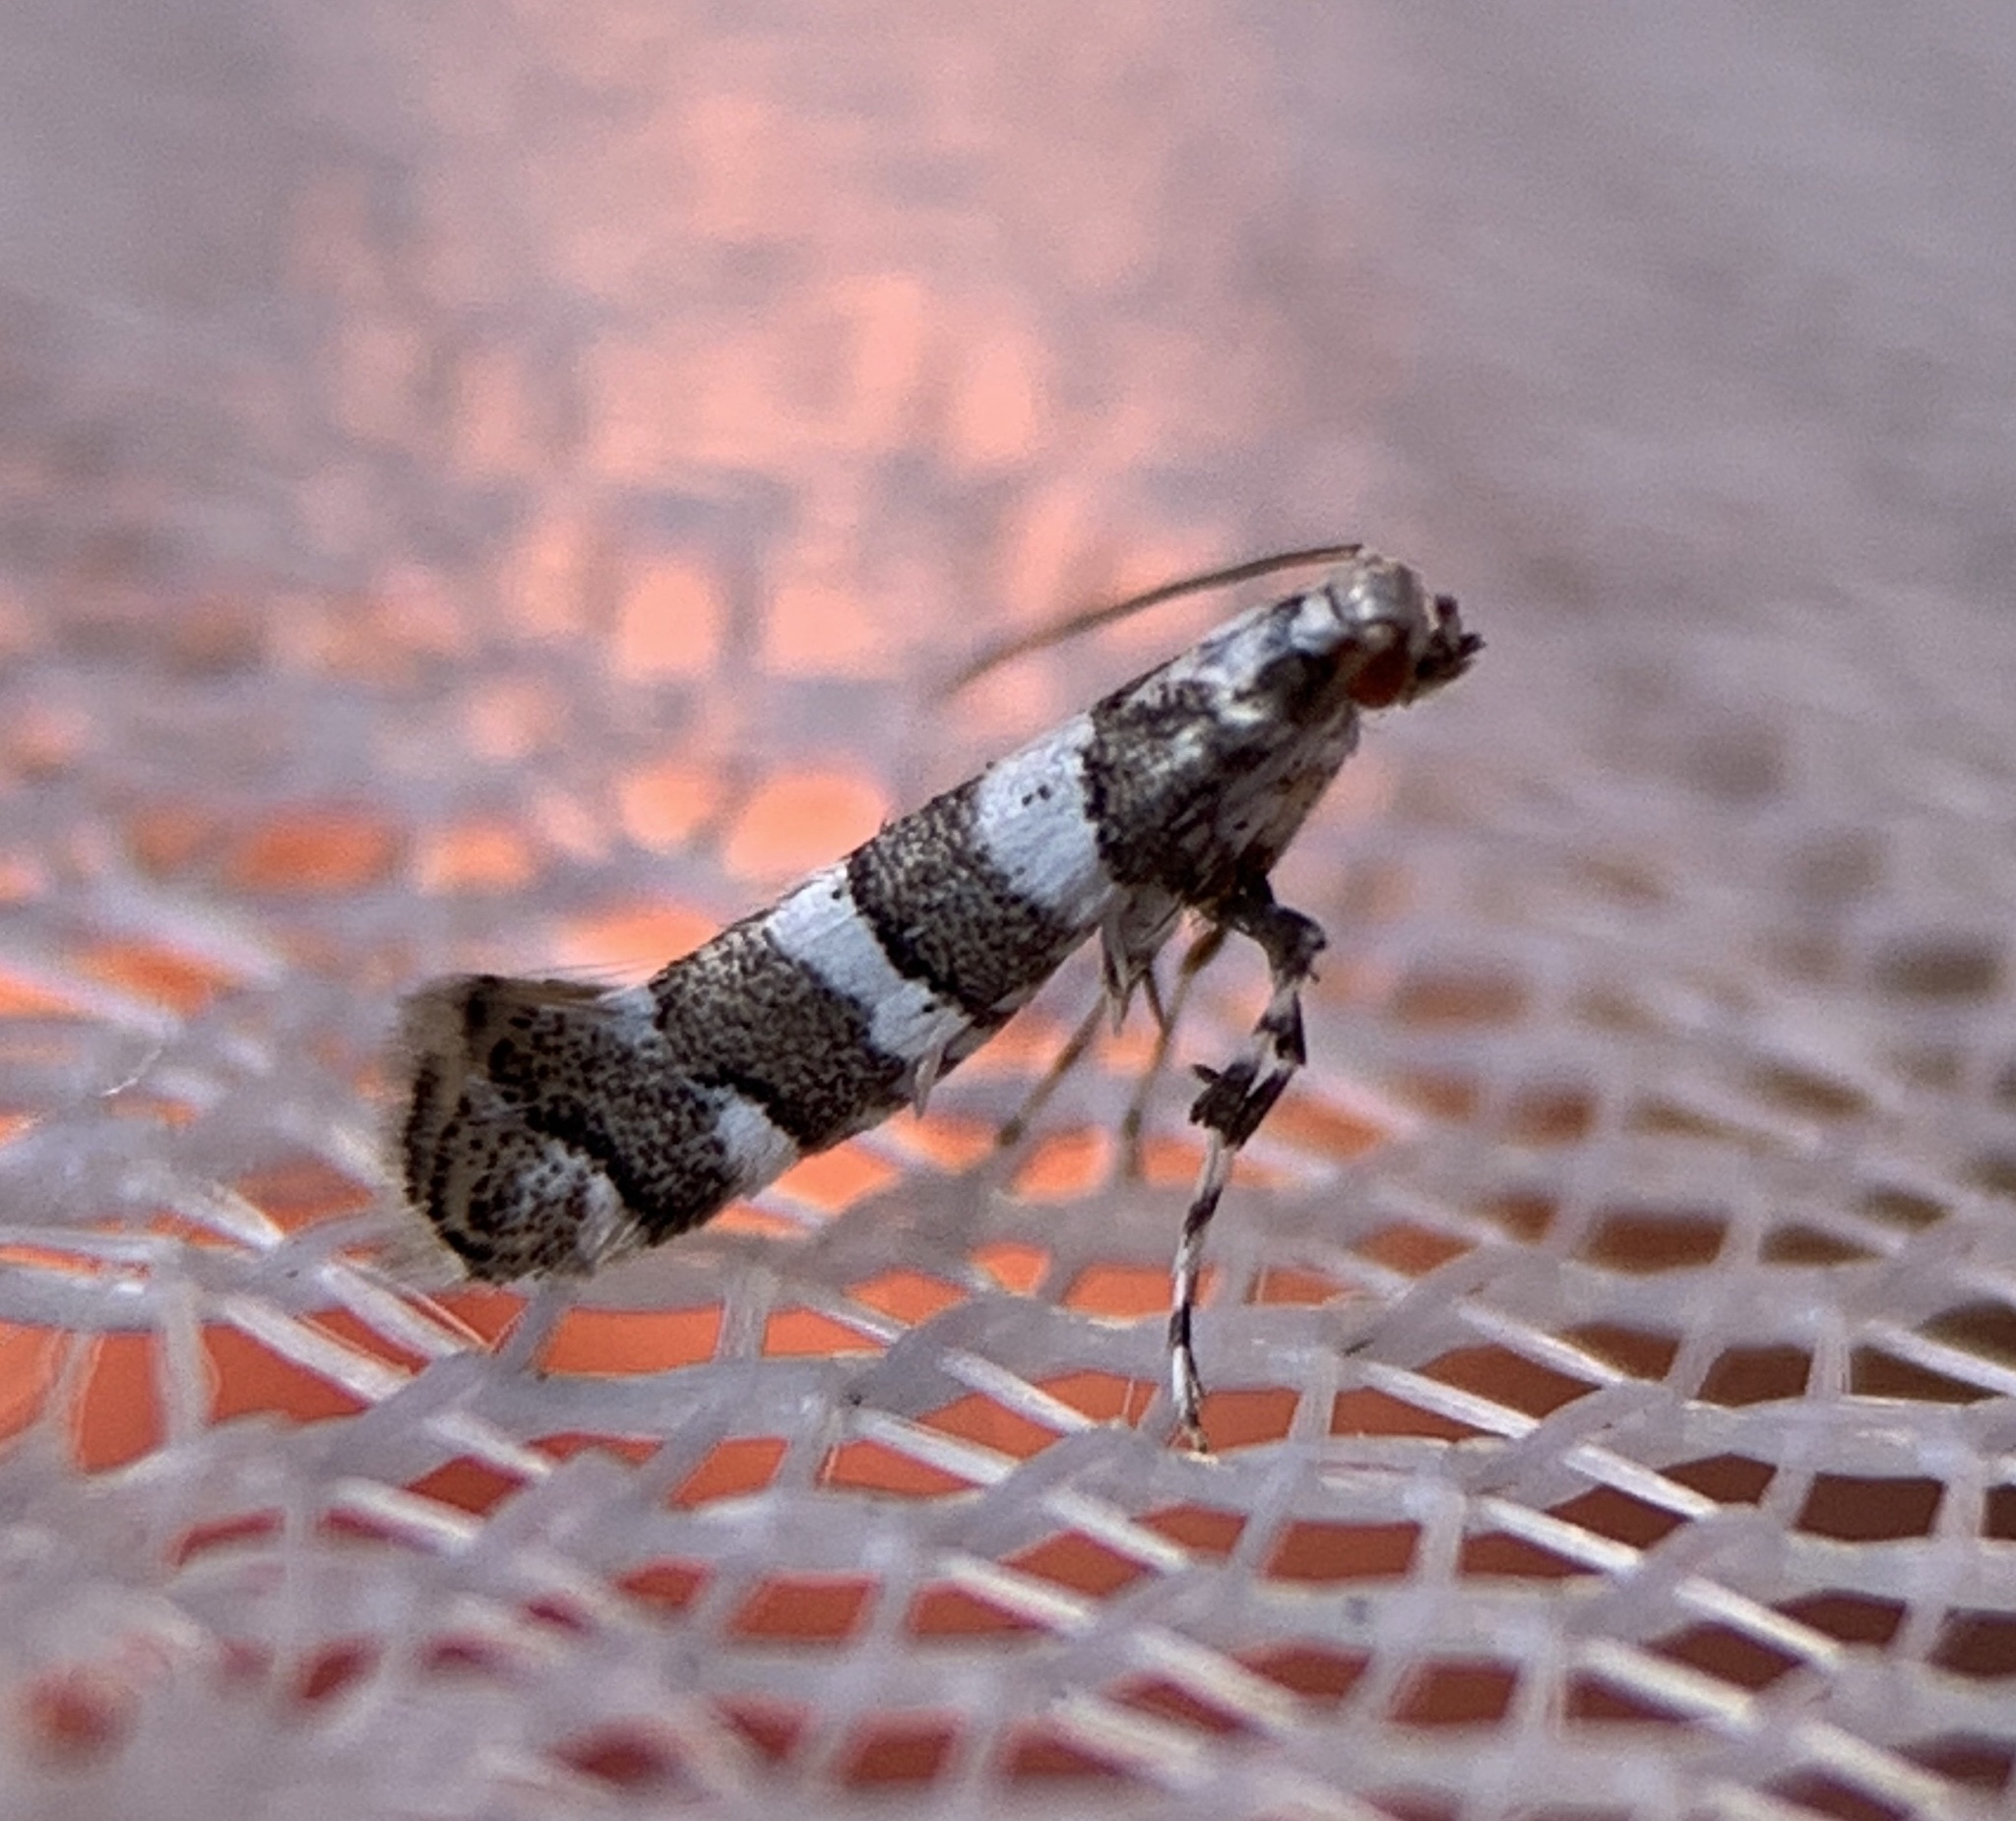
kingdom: Animalia
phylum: Arthropoda
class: Insecta
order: Lepidoptera
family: Gracillariidae
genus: Marmara
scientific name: Marmara fasciella
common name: White pine barkminer moth
